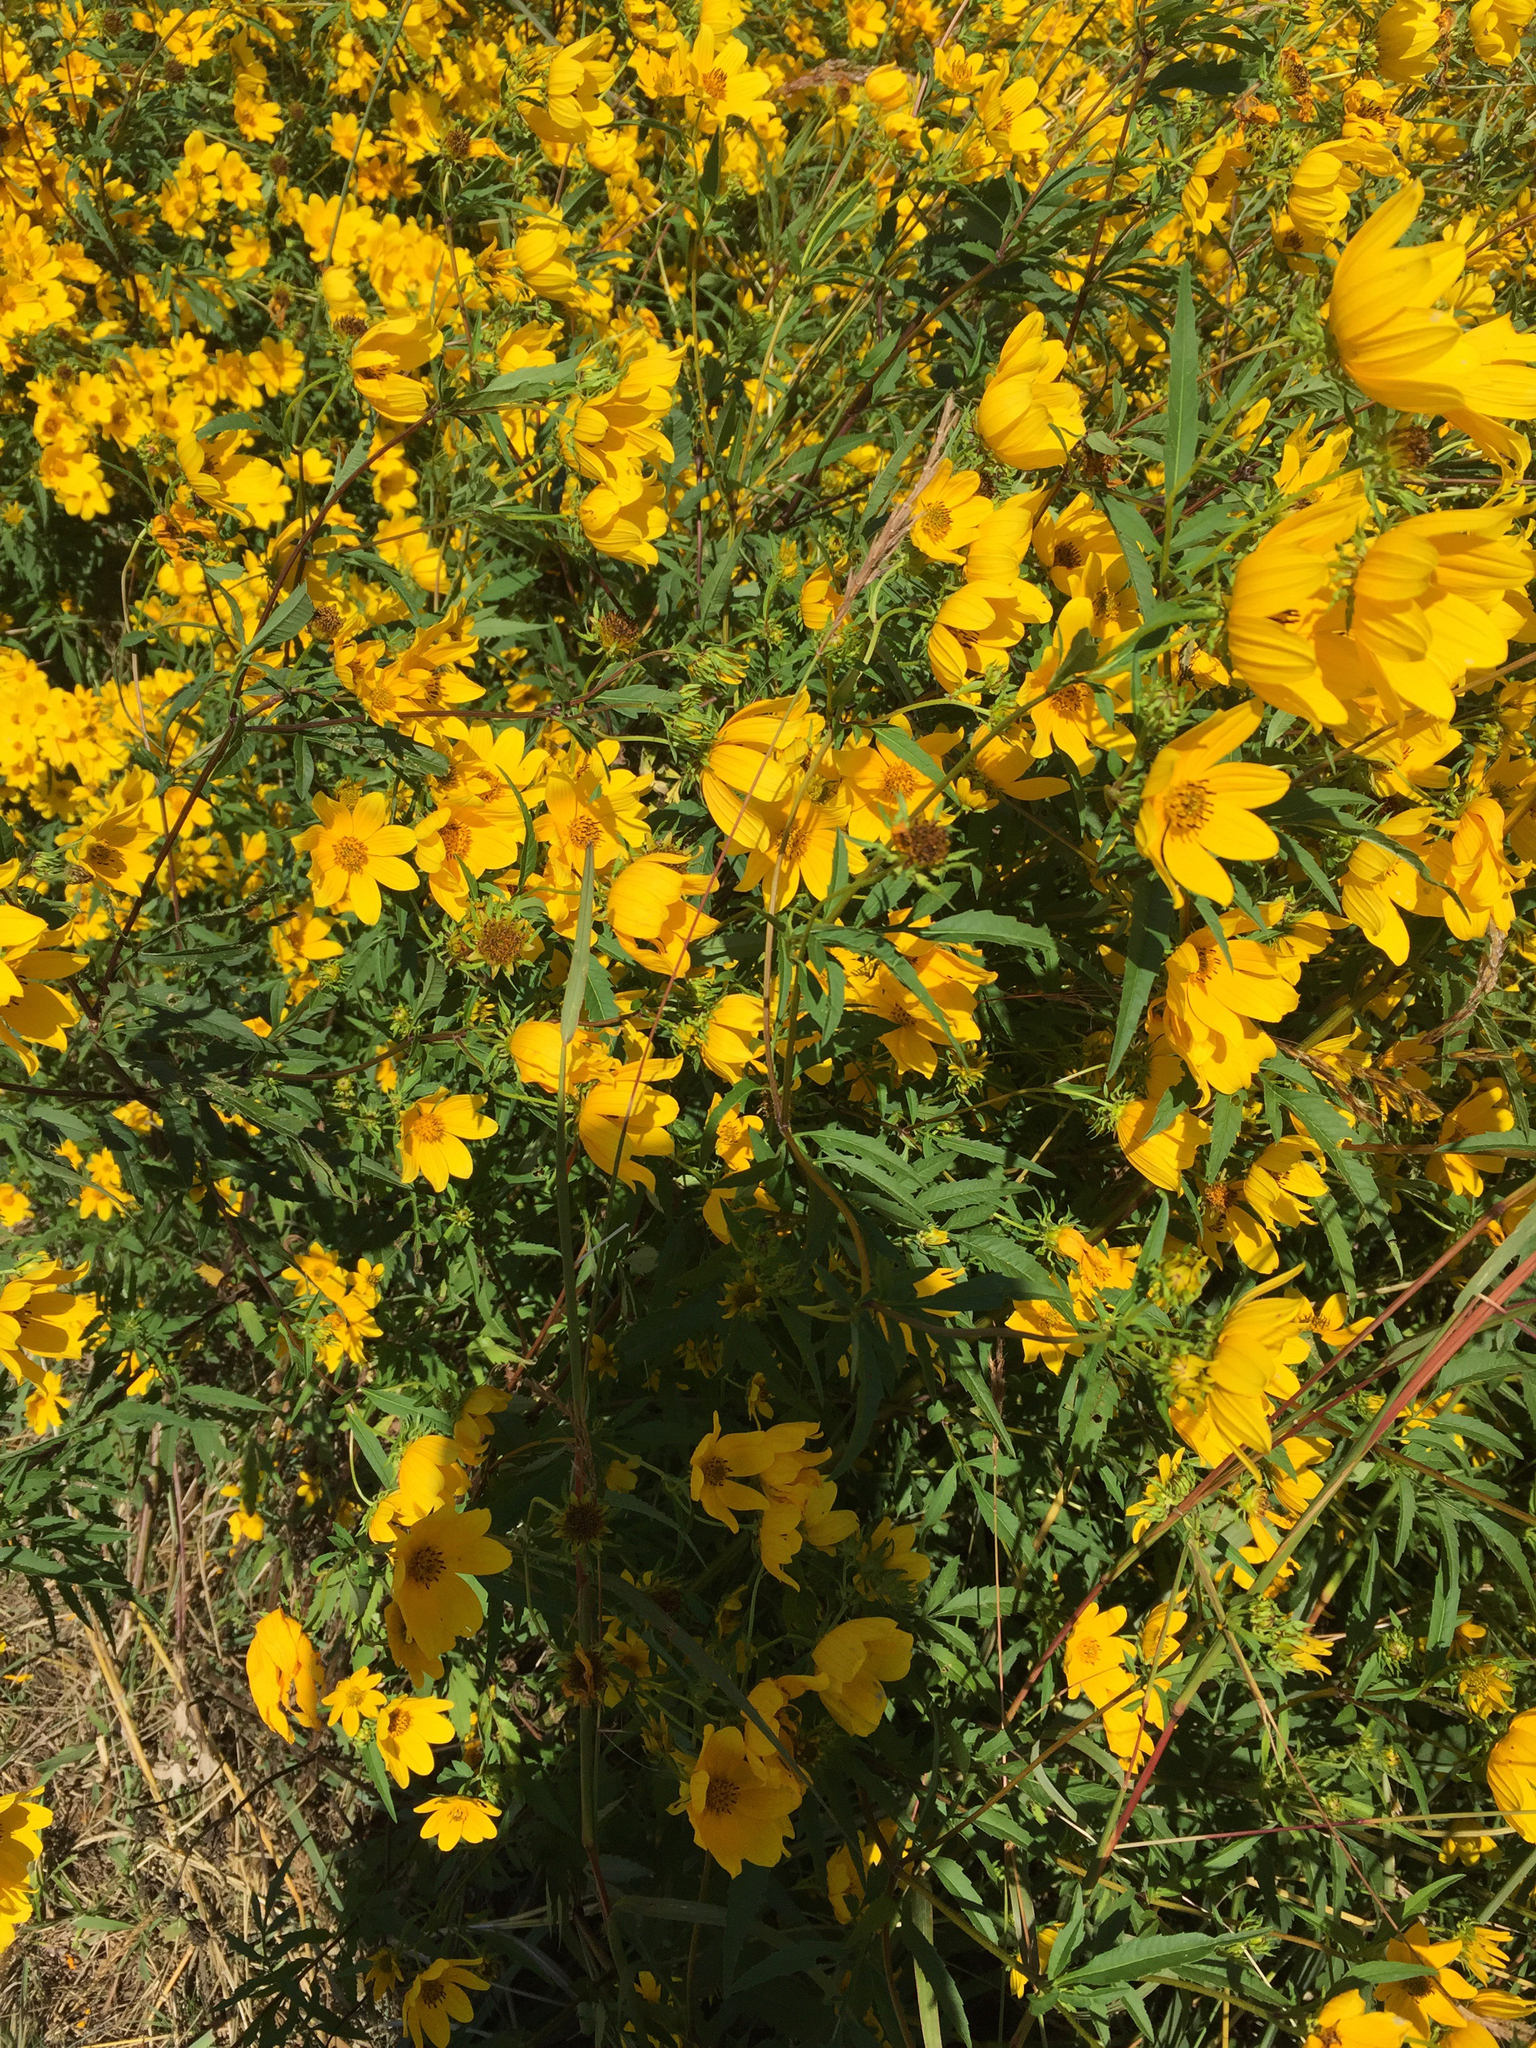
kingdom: Plantae
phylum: Tracheophyta
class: Magnoliopsida
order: Asterales
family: Asteraceae
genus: Bidens
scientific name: Bidens aristosa
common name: Western tickseed
